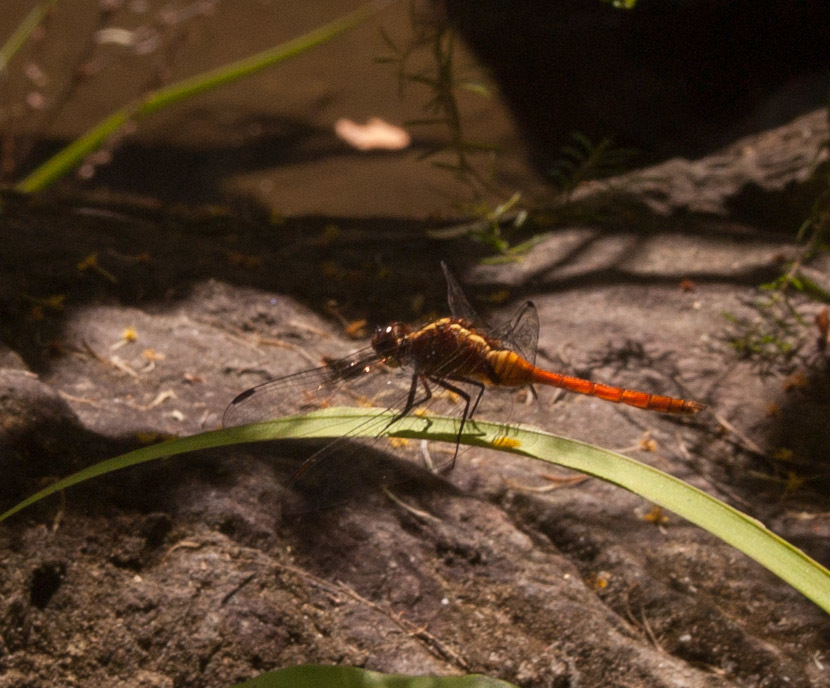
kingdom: Animalia
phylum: Arthropoda
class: Insecta
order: Odonata
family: Libellulidae
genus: Orthetrum
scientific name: Orthetrum villosovittatum
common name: Firery skimmer
